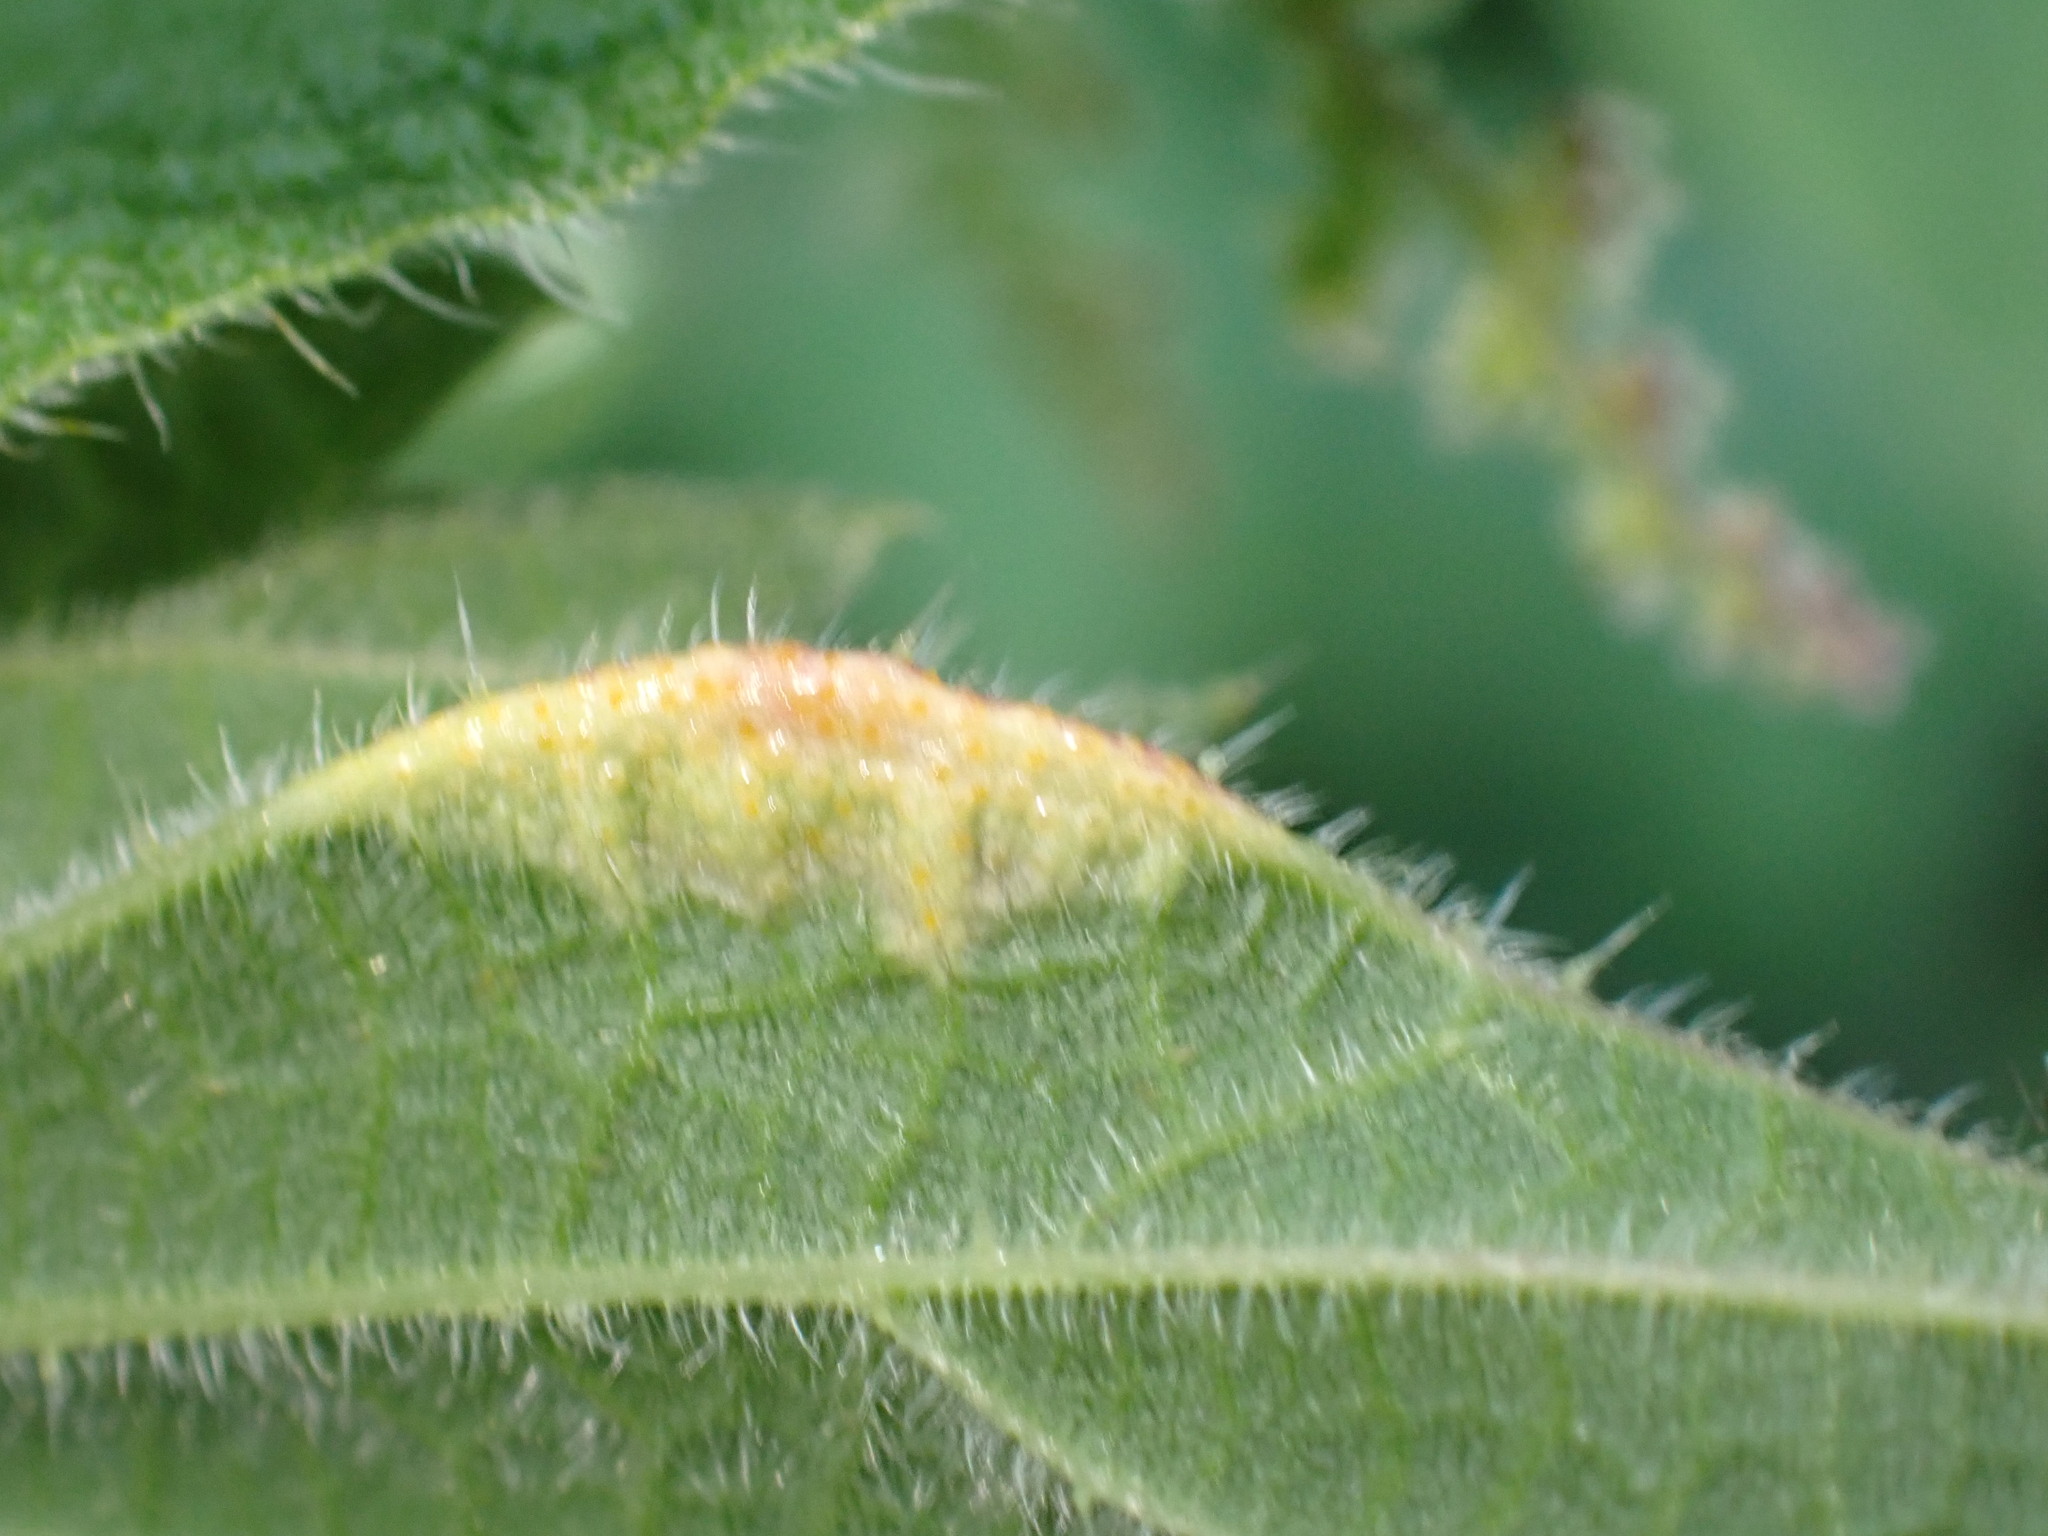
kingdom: Fungi
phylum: Basidiomycota
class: Pucciniomycetes
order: Pucciniales
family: Pucciniaceae
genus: Puccinia
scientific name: Puccinia urticata
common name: Nettle clustercup rust fungus
